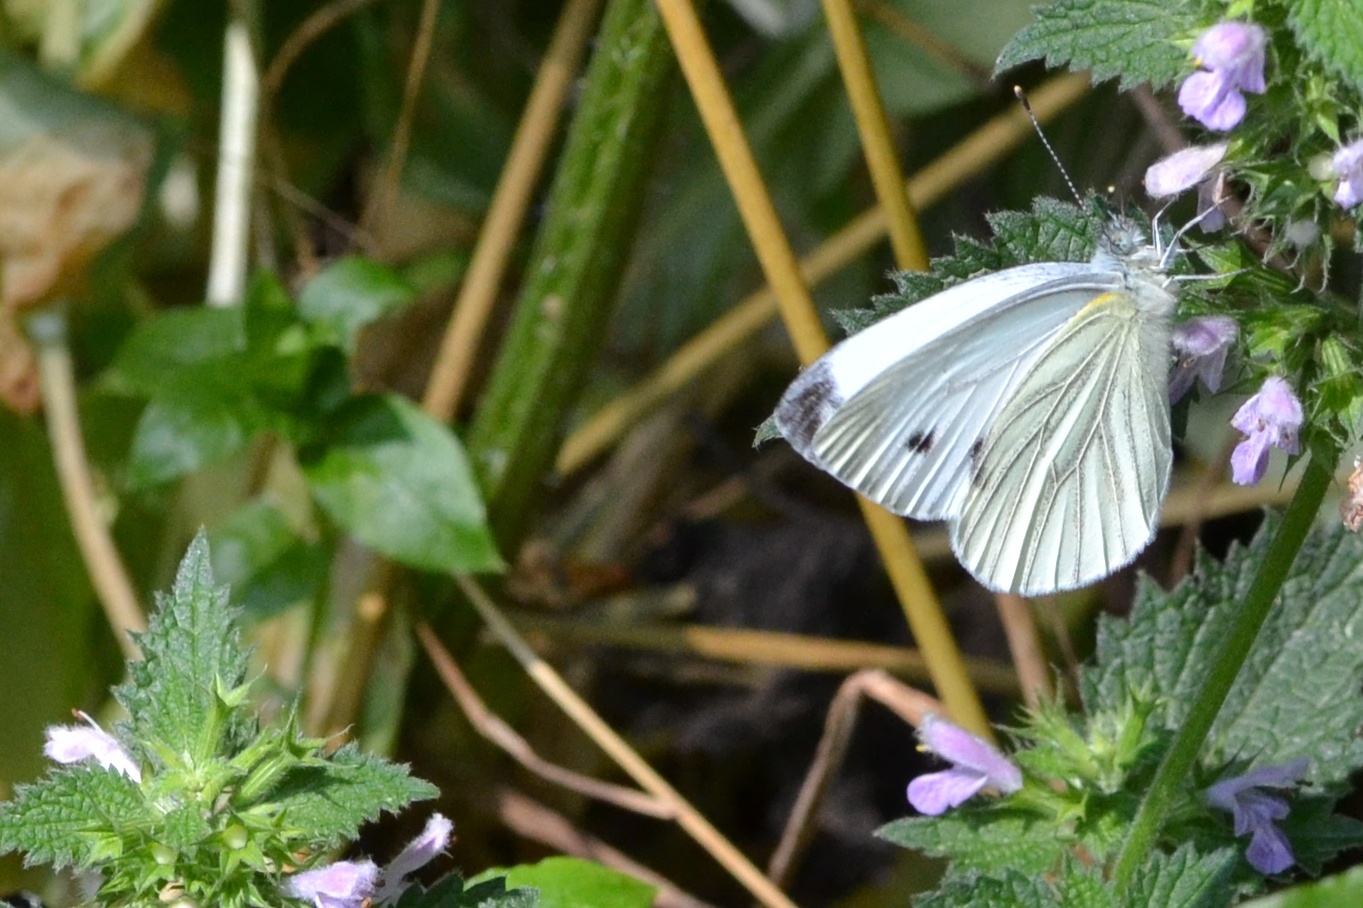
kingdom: Animalia
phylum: Arthropoda
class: Insecta
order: Lepidoptera
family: Pieridae
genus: Pieris
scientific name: Pieris napi
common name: Green-veined white
